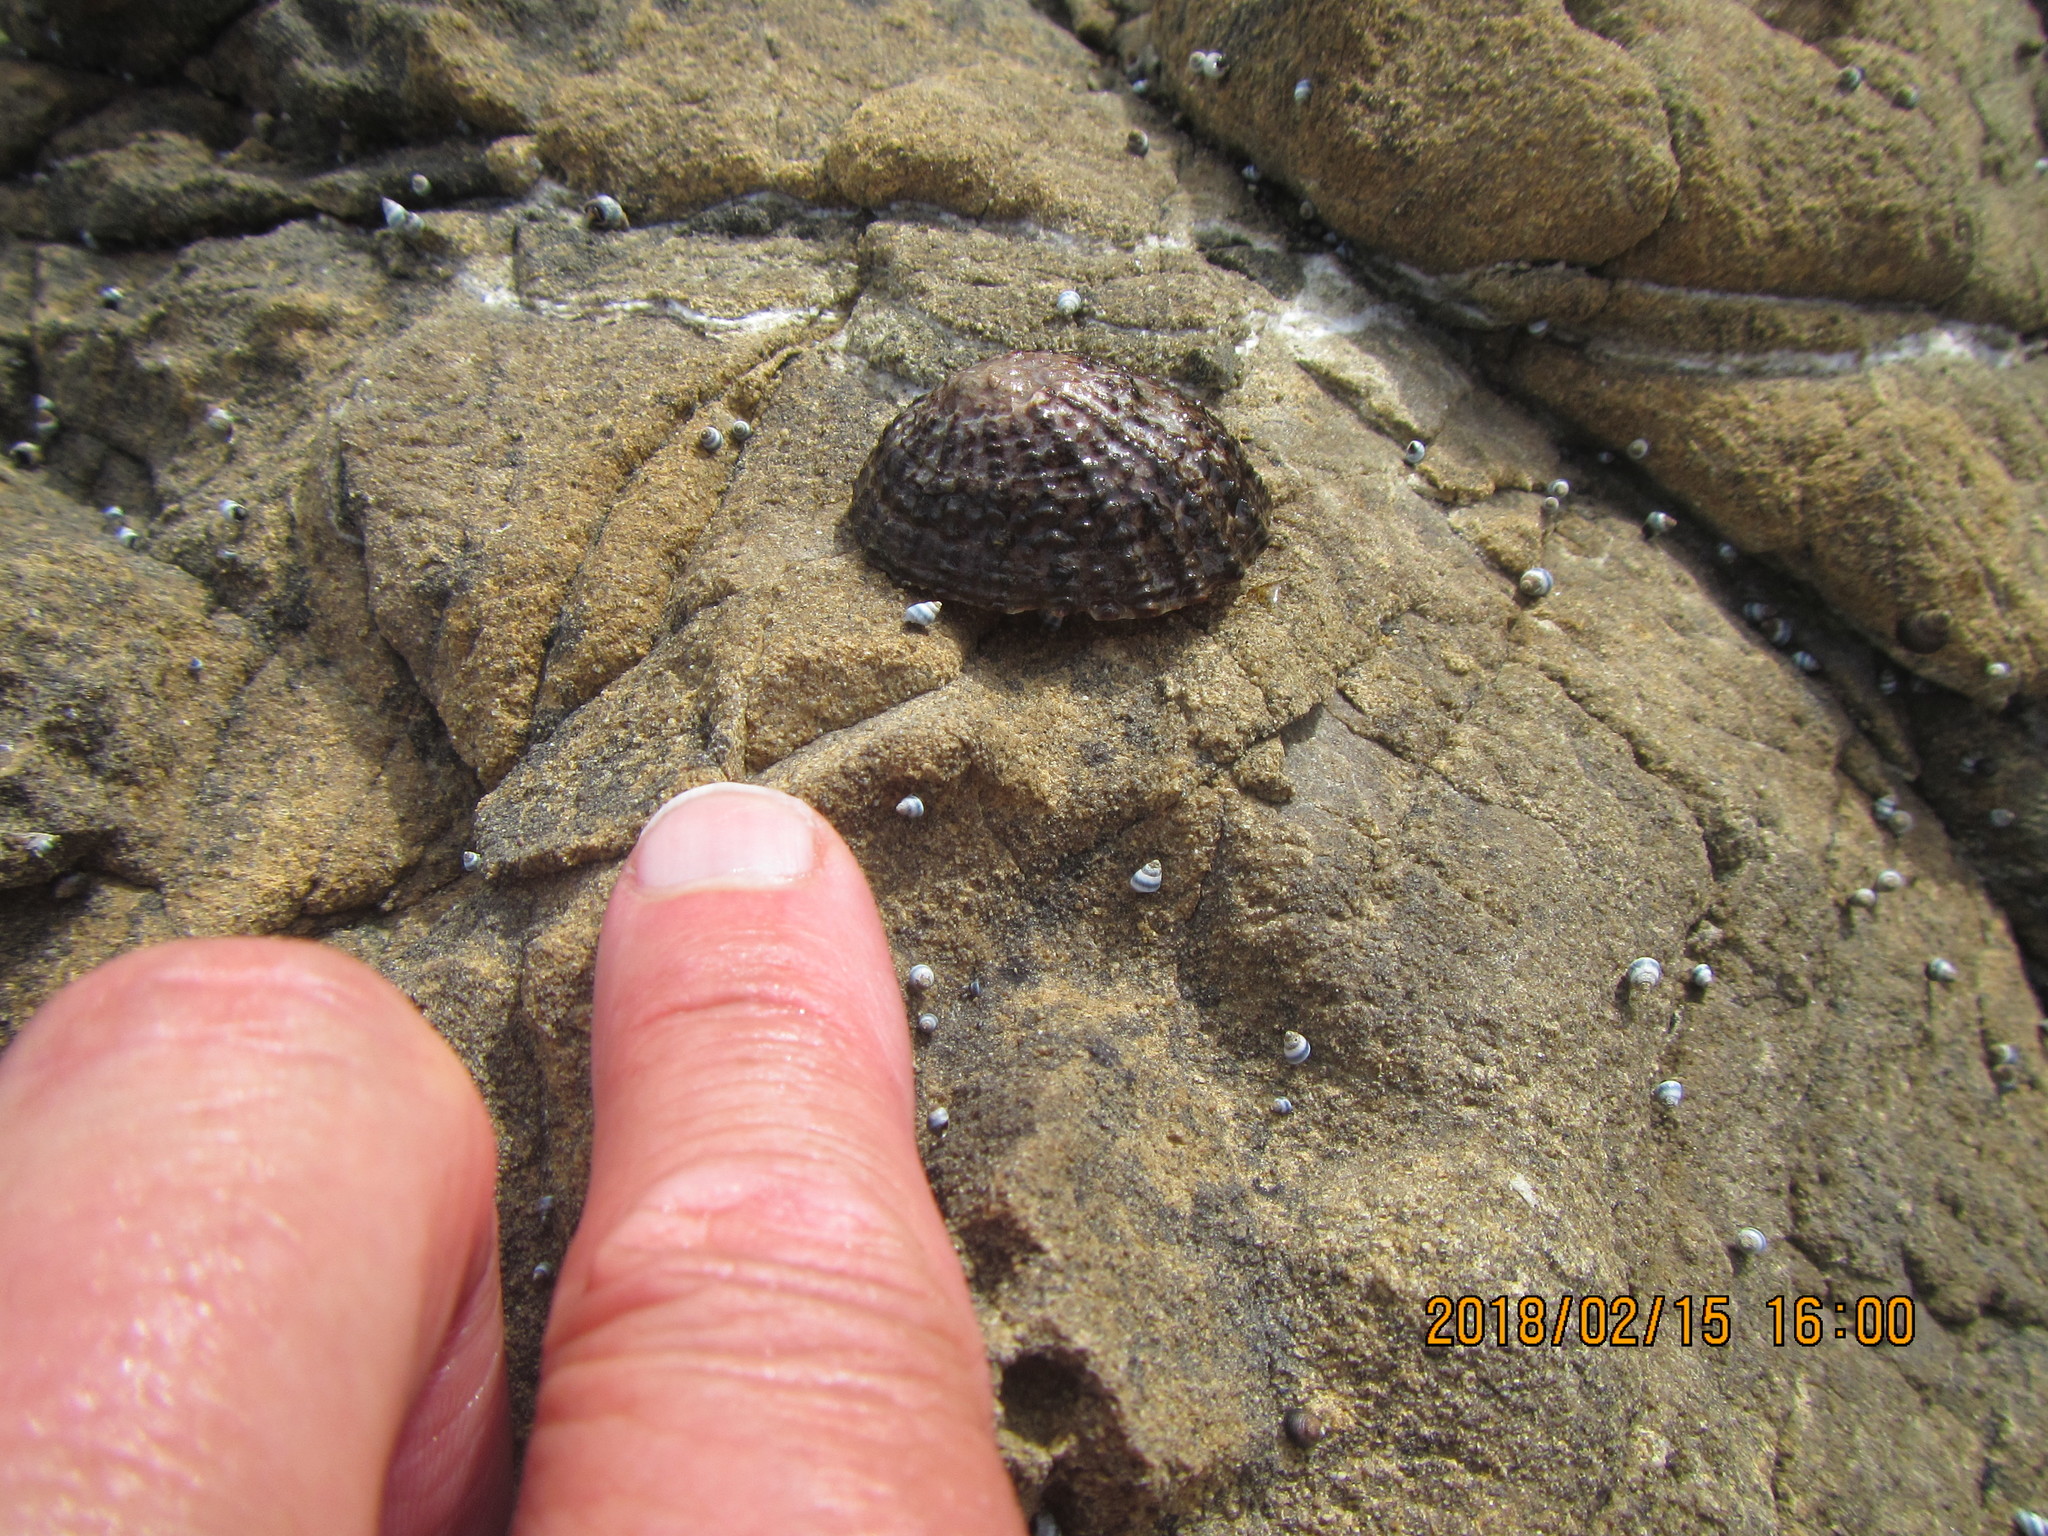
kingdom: Animalia
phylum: Mollusca
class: Gastropoda
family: Nacellidae
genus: Cellana
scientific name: Cellana denticulata
